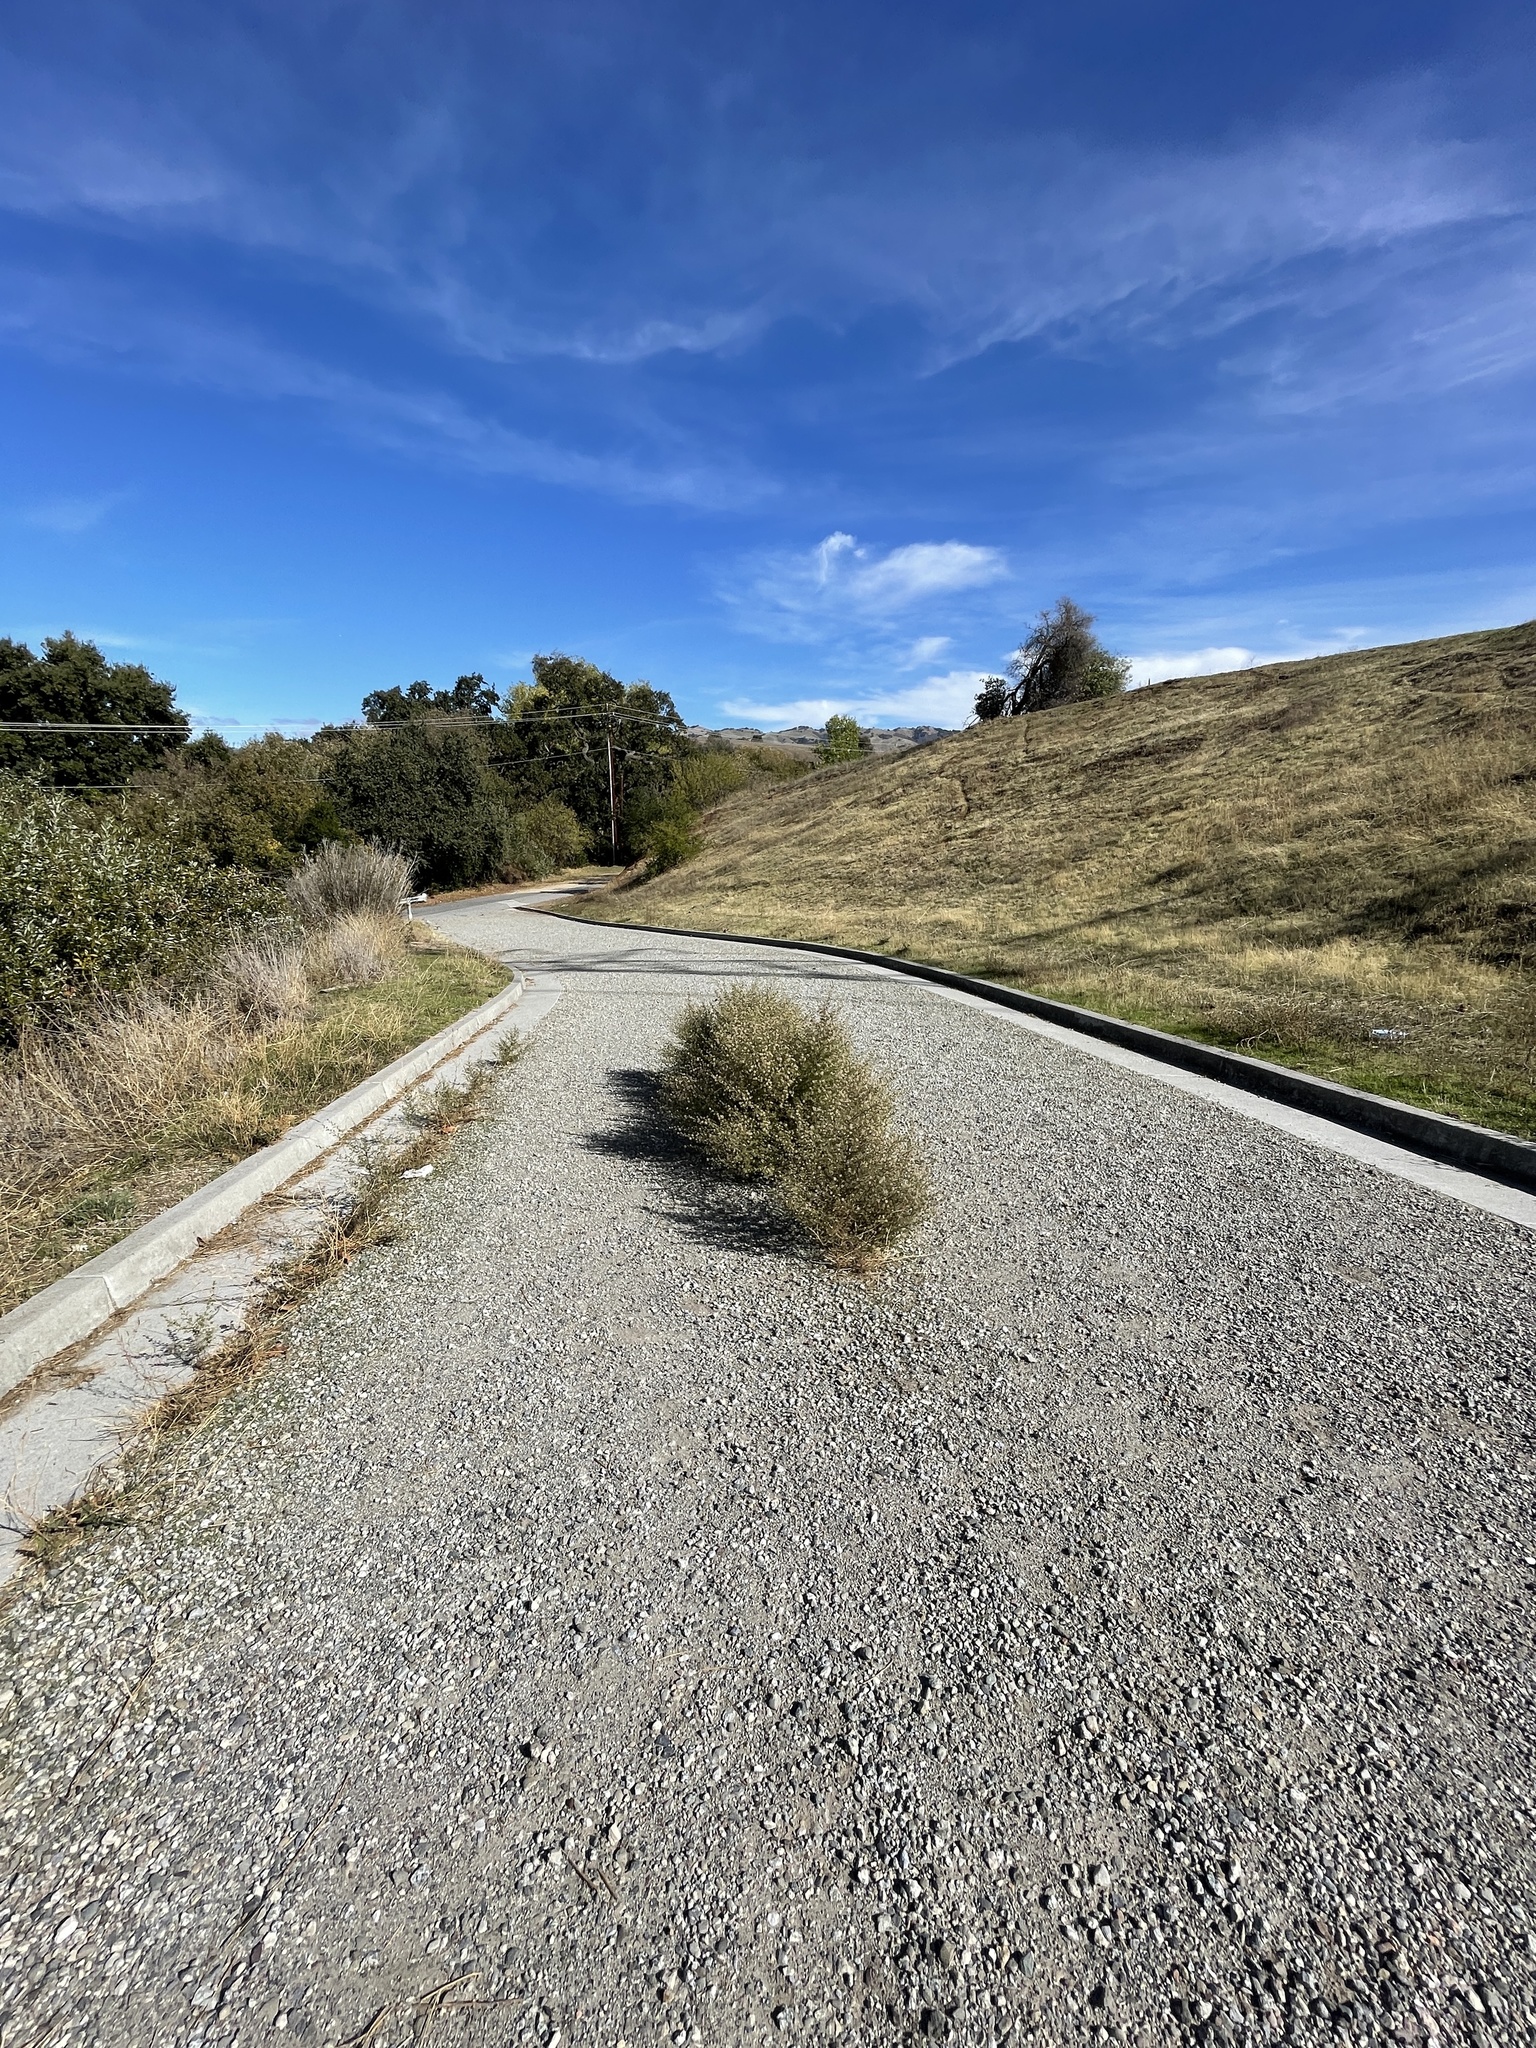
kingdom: Plantae
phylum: Tracheophyta
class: Magnoliopsida
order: Asterales
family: Asteraceae
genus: Dittrichia
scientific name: Dittrichia graveolens
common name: Stinking fleabane
